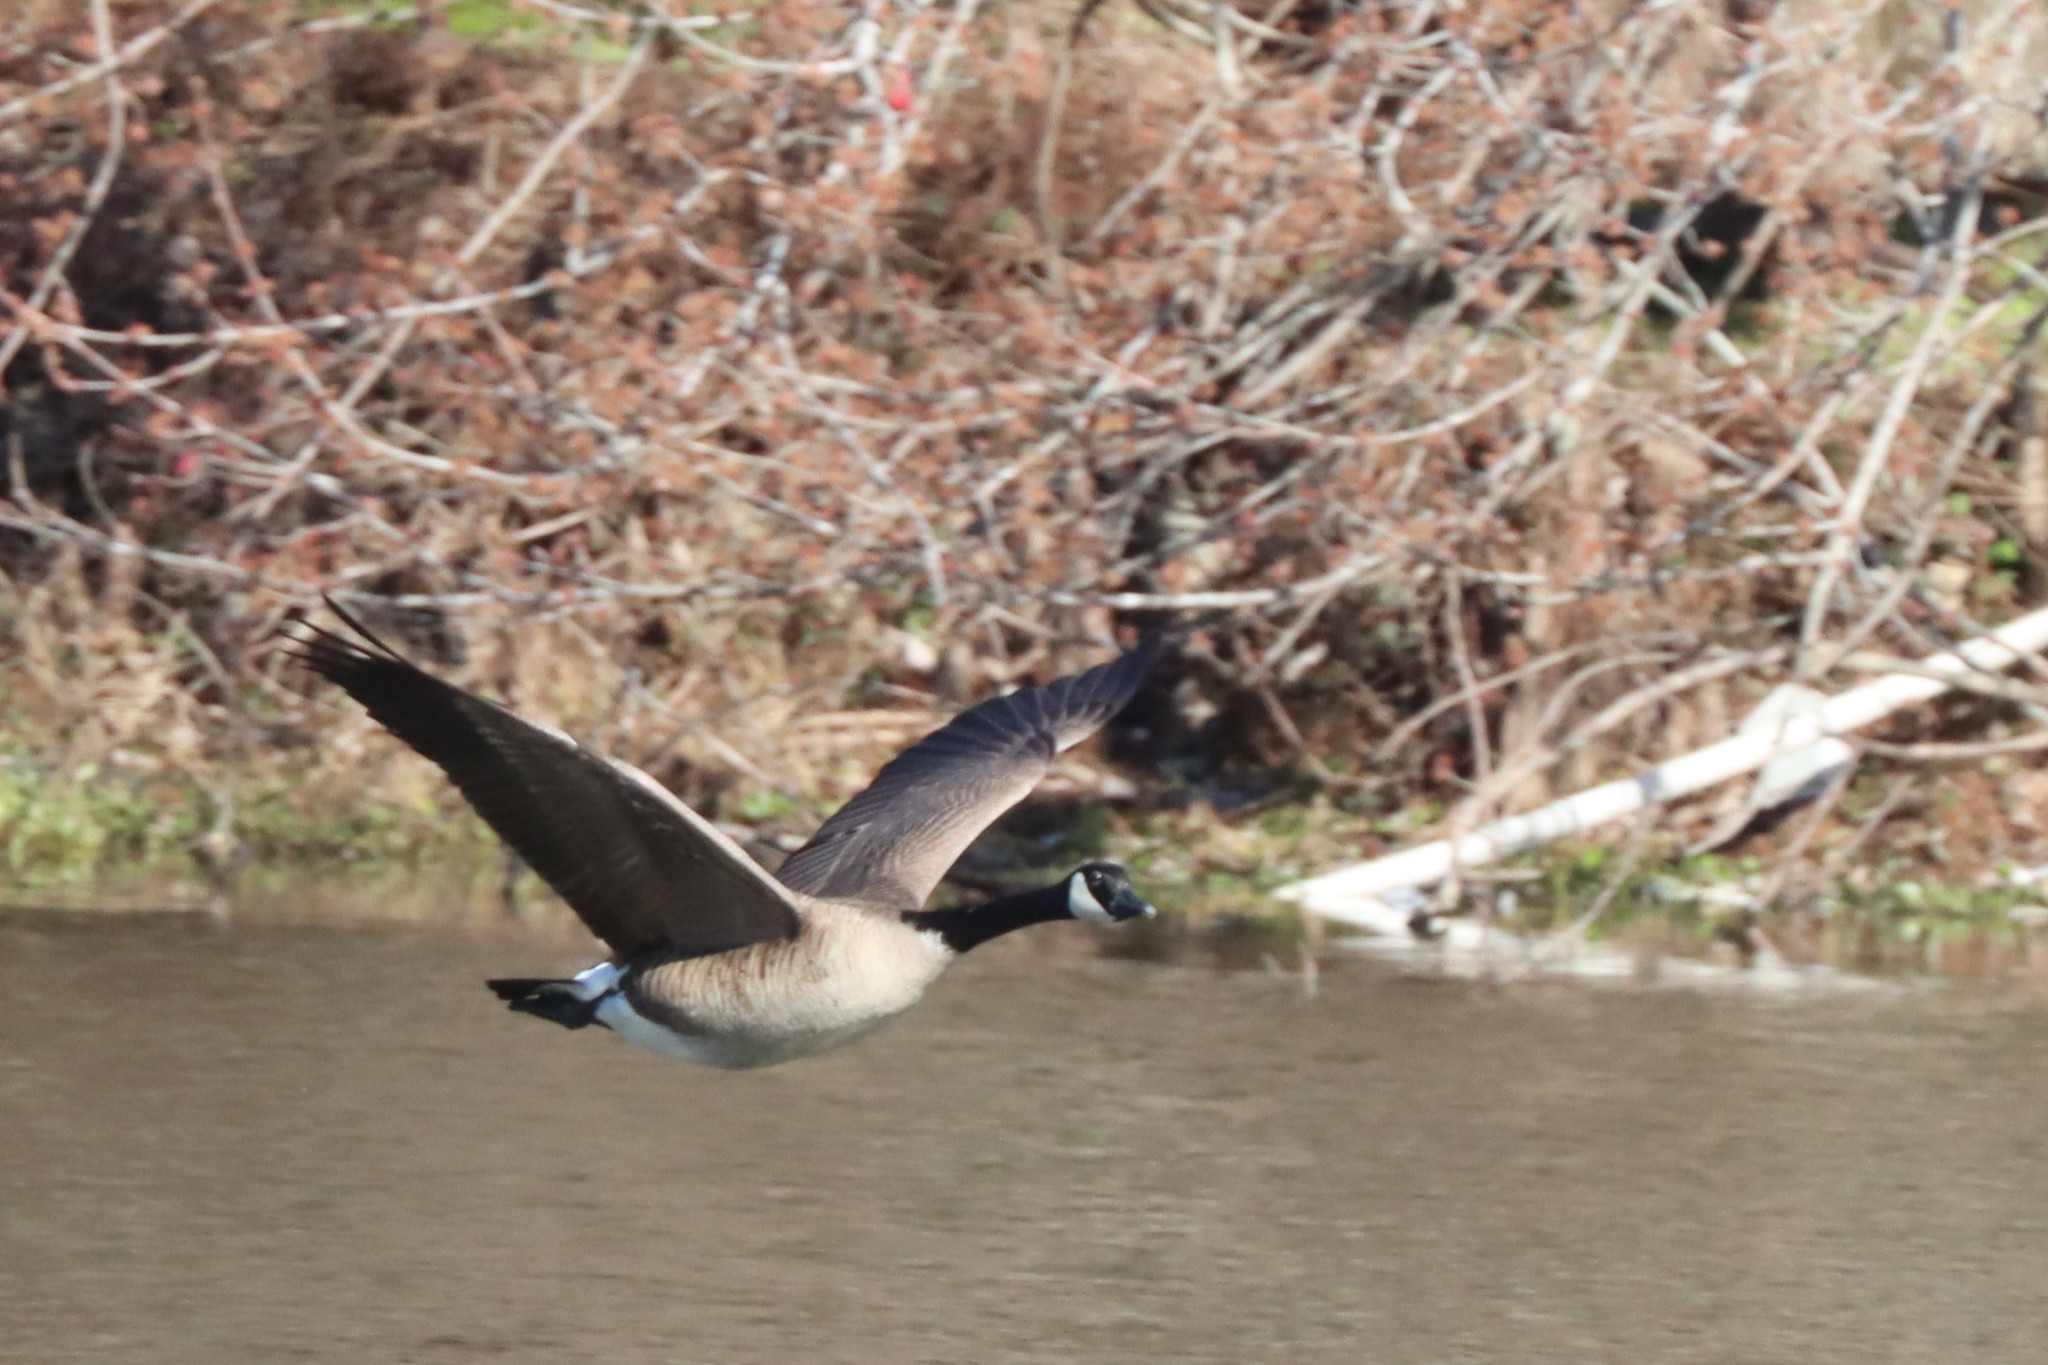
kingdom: Animalia
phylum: Chordata
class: Aves
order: Anseriformes
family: Anatidae
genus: Branta
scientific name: Branta canadensis
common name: Canada goose
